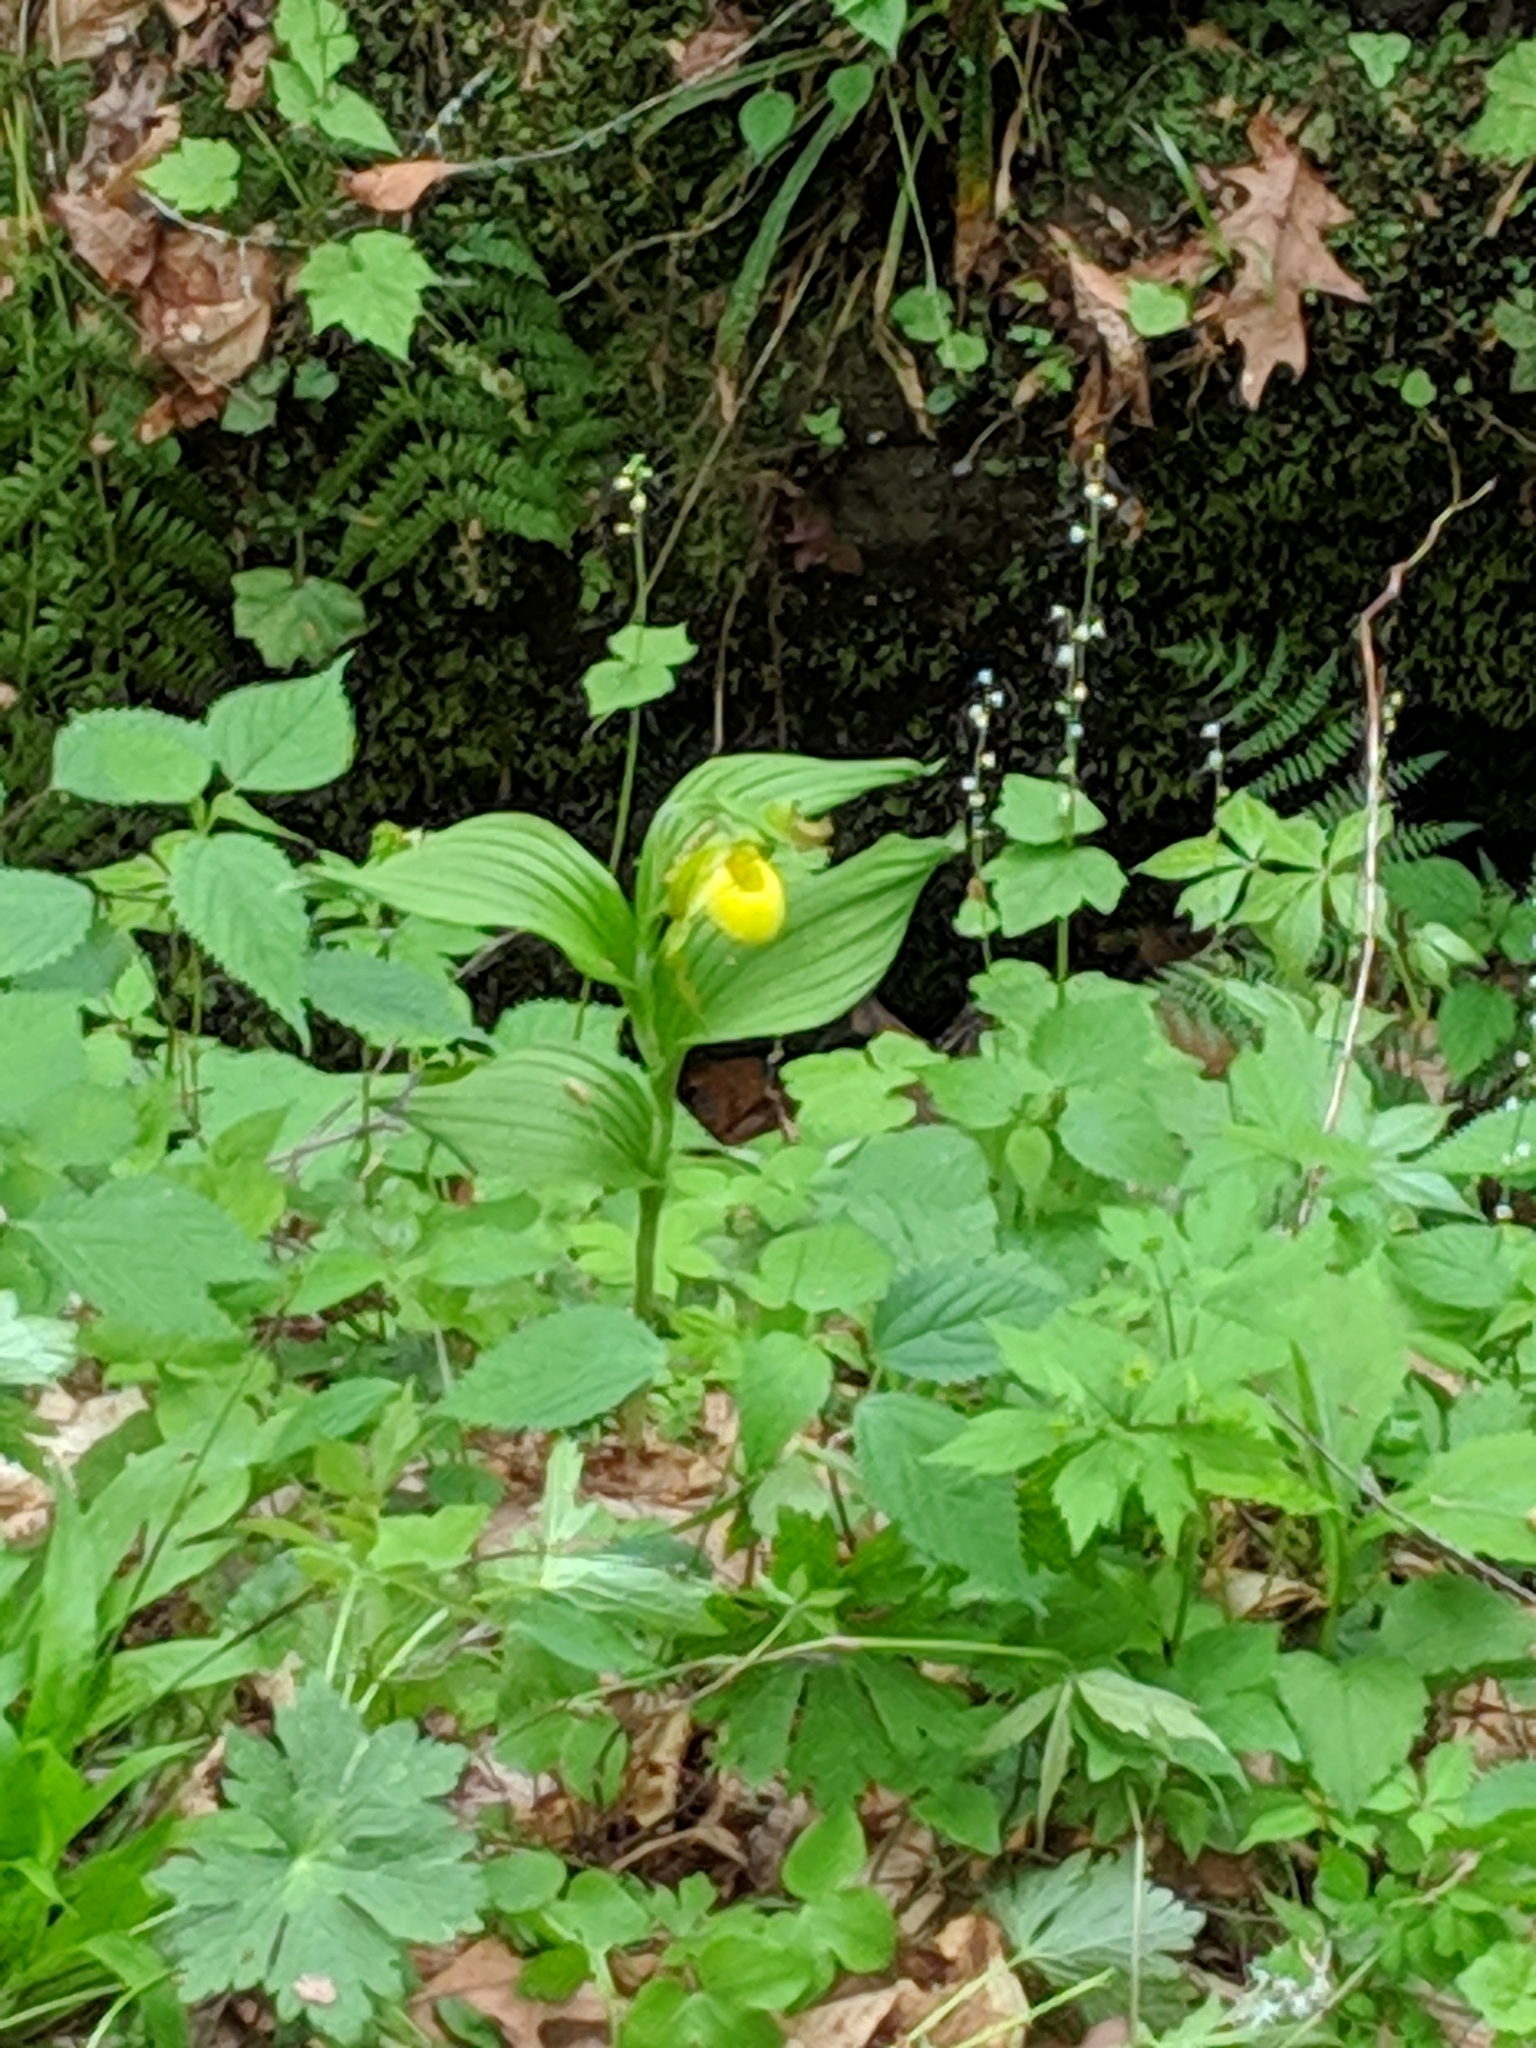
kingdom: Plantae
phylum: Tracheophyta
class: Liliopsida
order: Asparagales
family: Orchidaceae
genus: Cypripedium
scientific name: Cypripedium parviflorum
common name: American yellow lady's-slipper
